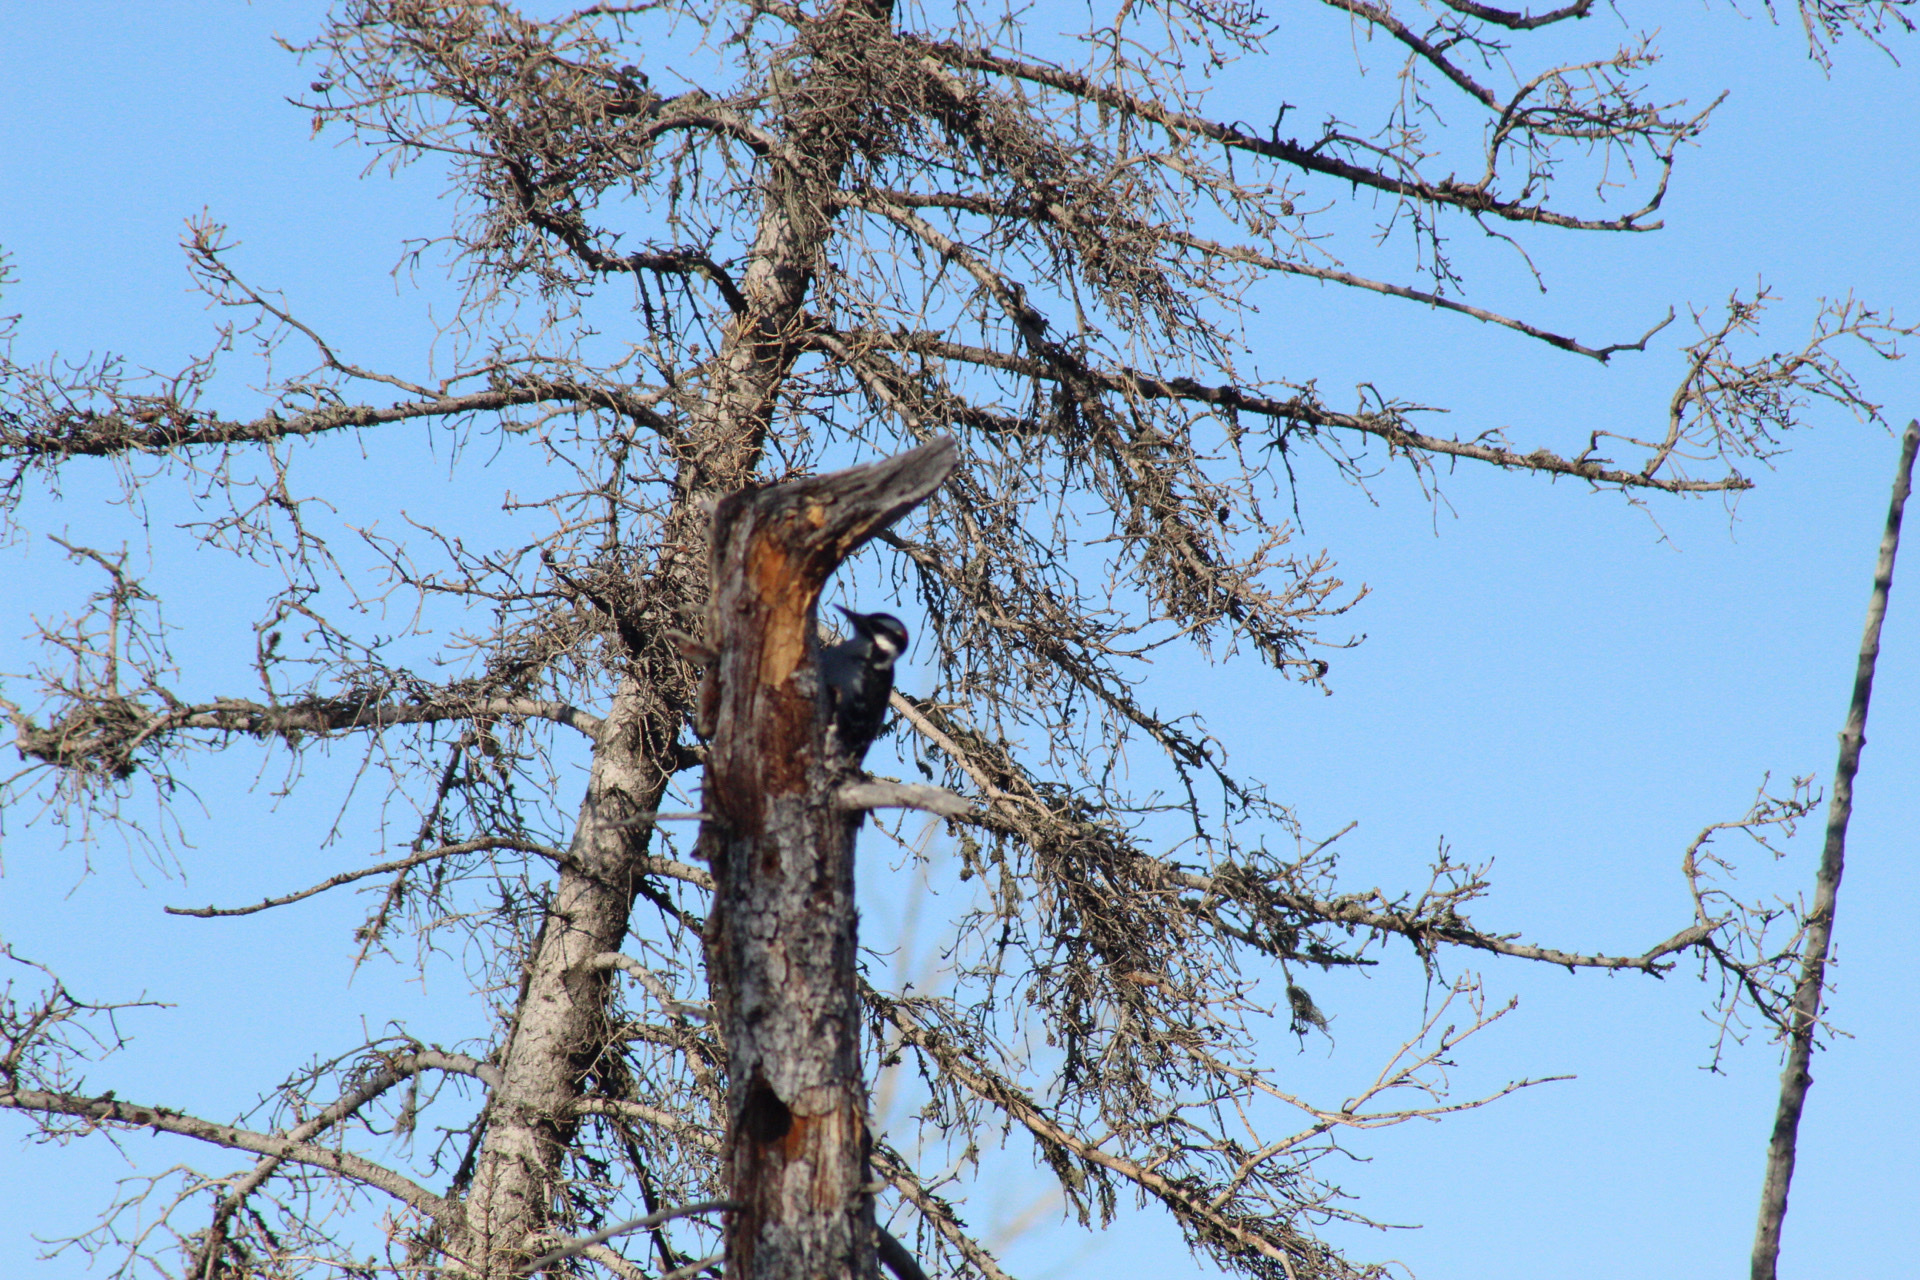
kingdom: Animalia
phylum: Chordata
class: Aves
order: Piciformes
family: Picidae
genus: Leuconotopicus
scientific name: Leuconotopicus villosus
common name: Hairy woodpecker
